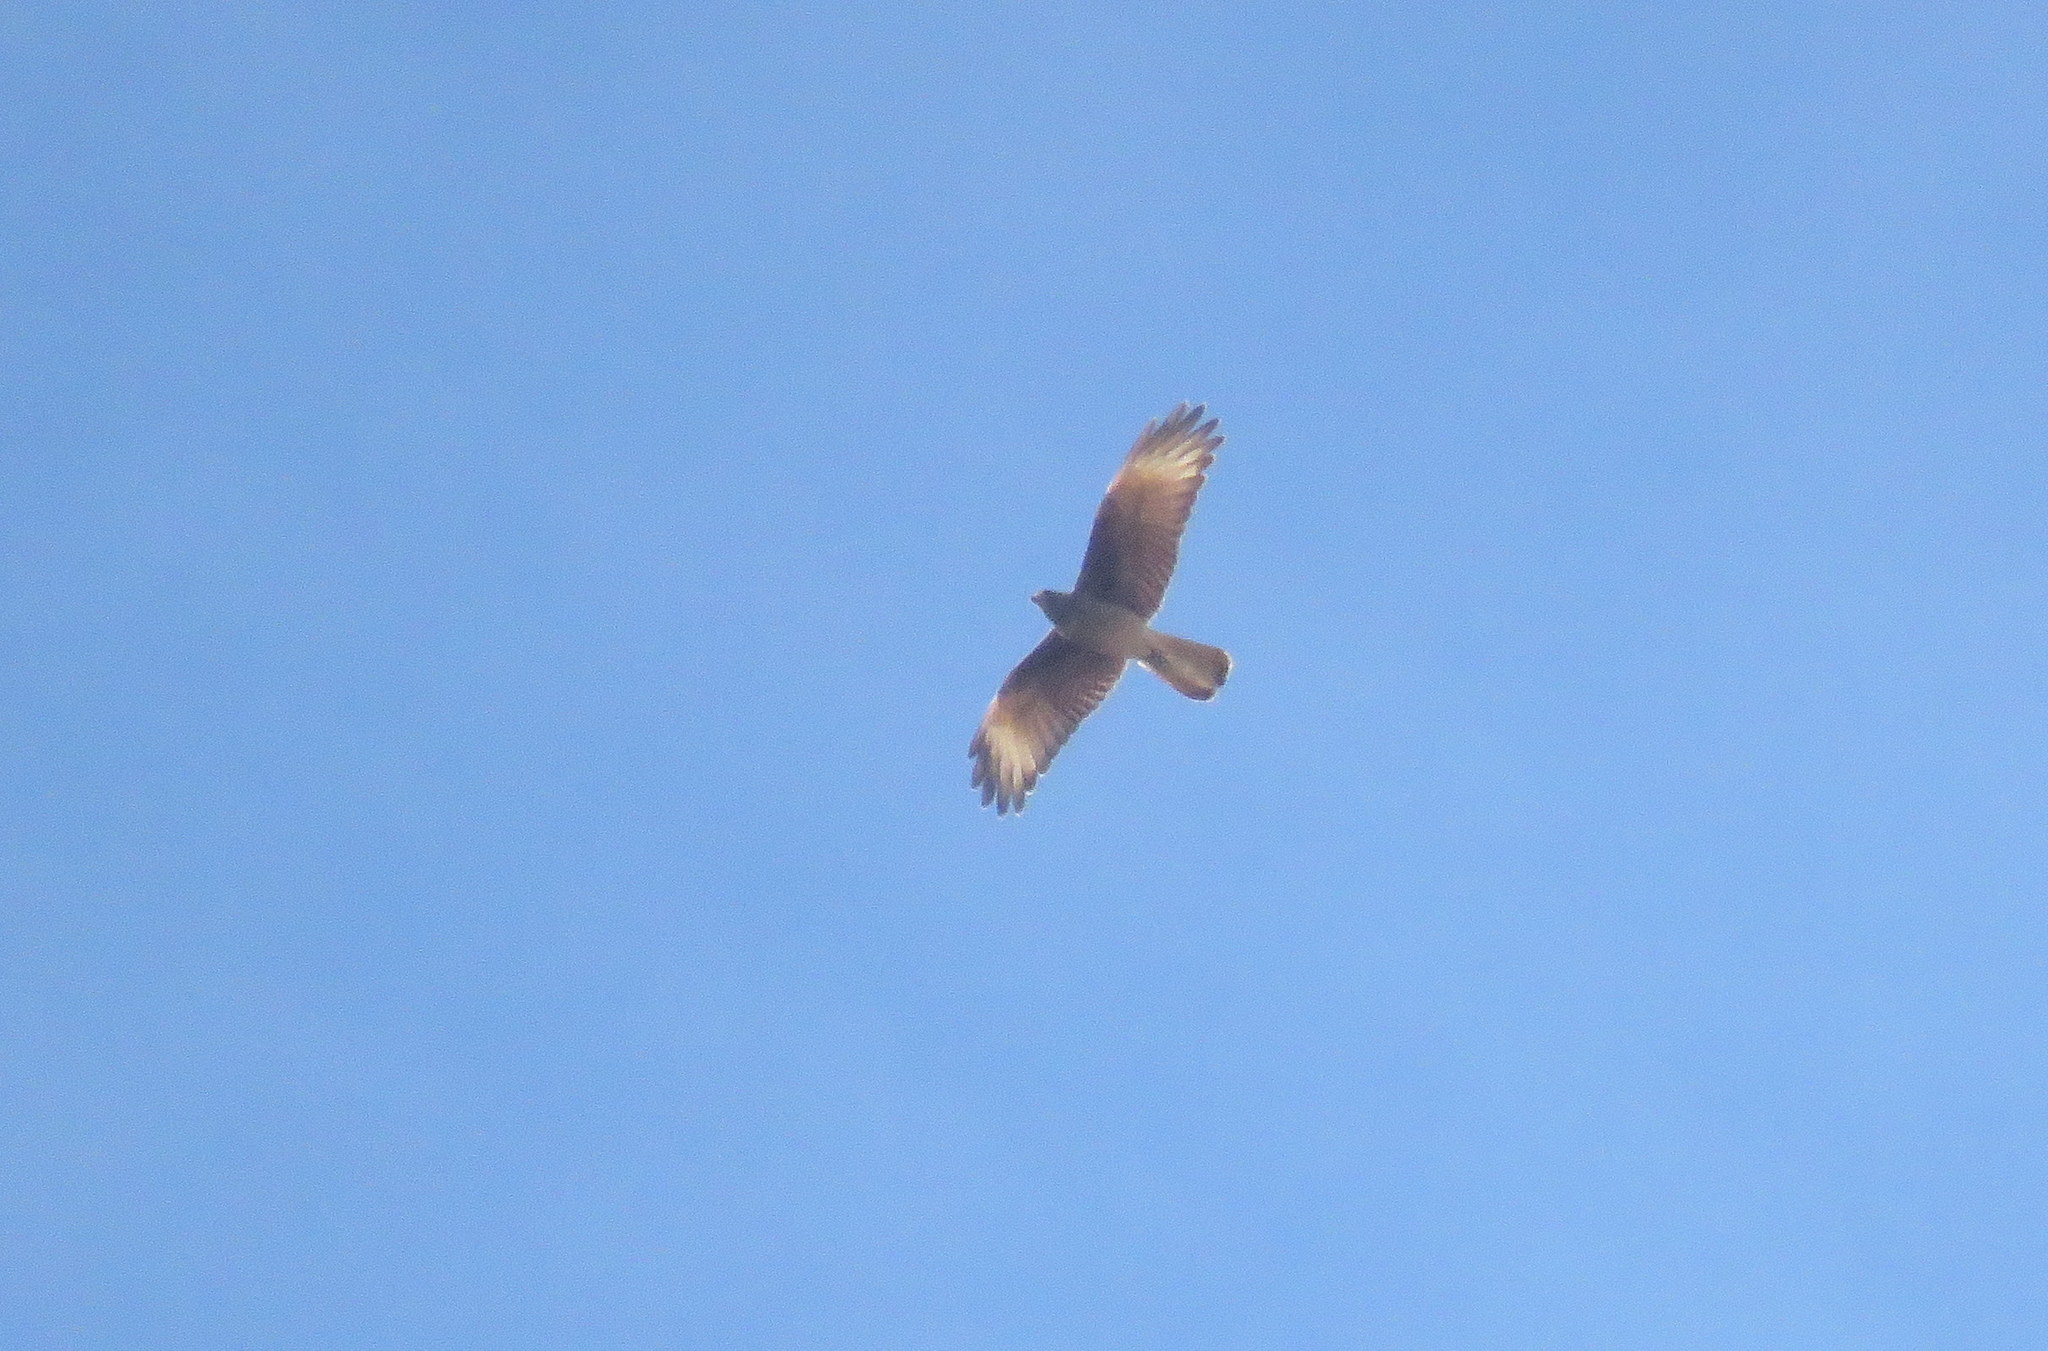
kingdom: Animalia
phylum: Chordata
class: Aves
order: Falconiformes
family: Falconidae
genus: Daptrius
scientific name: Daptrius
